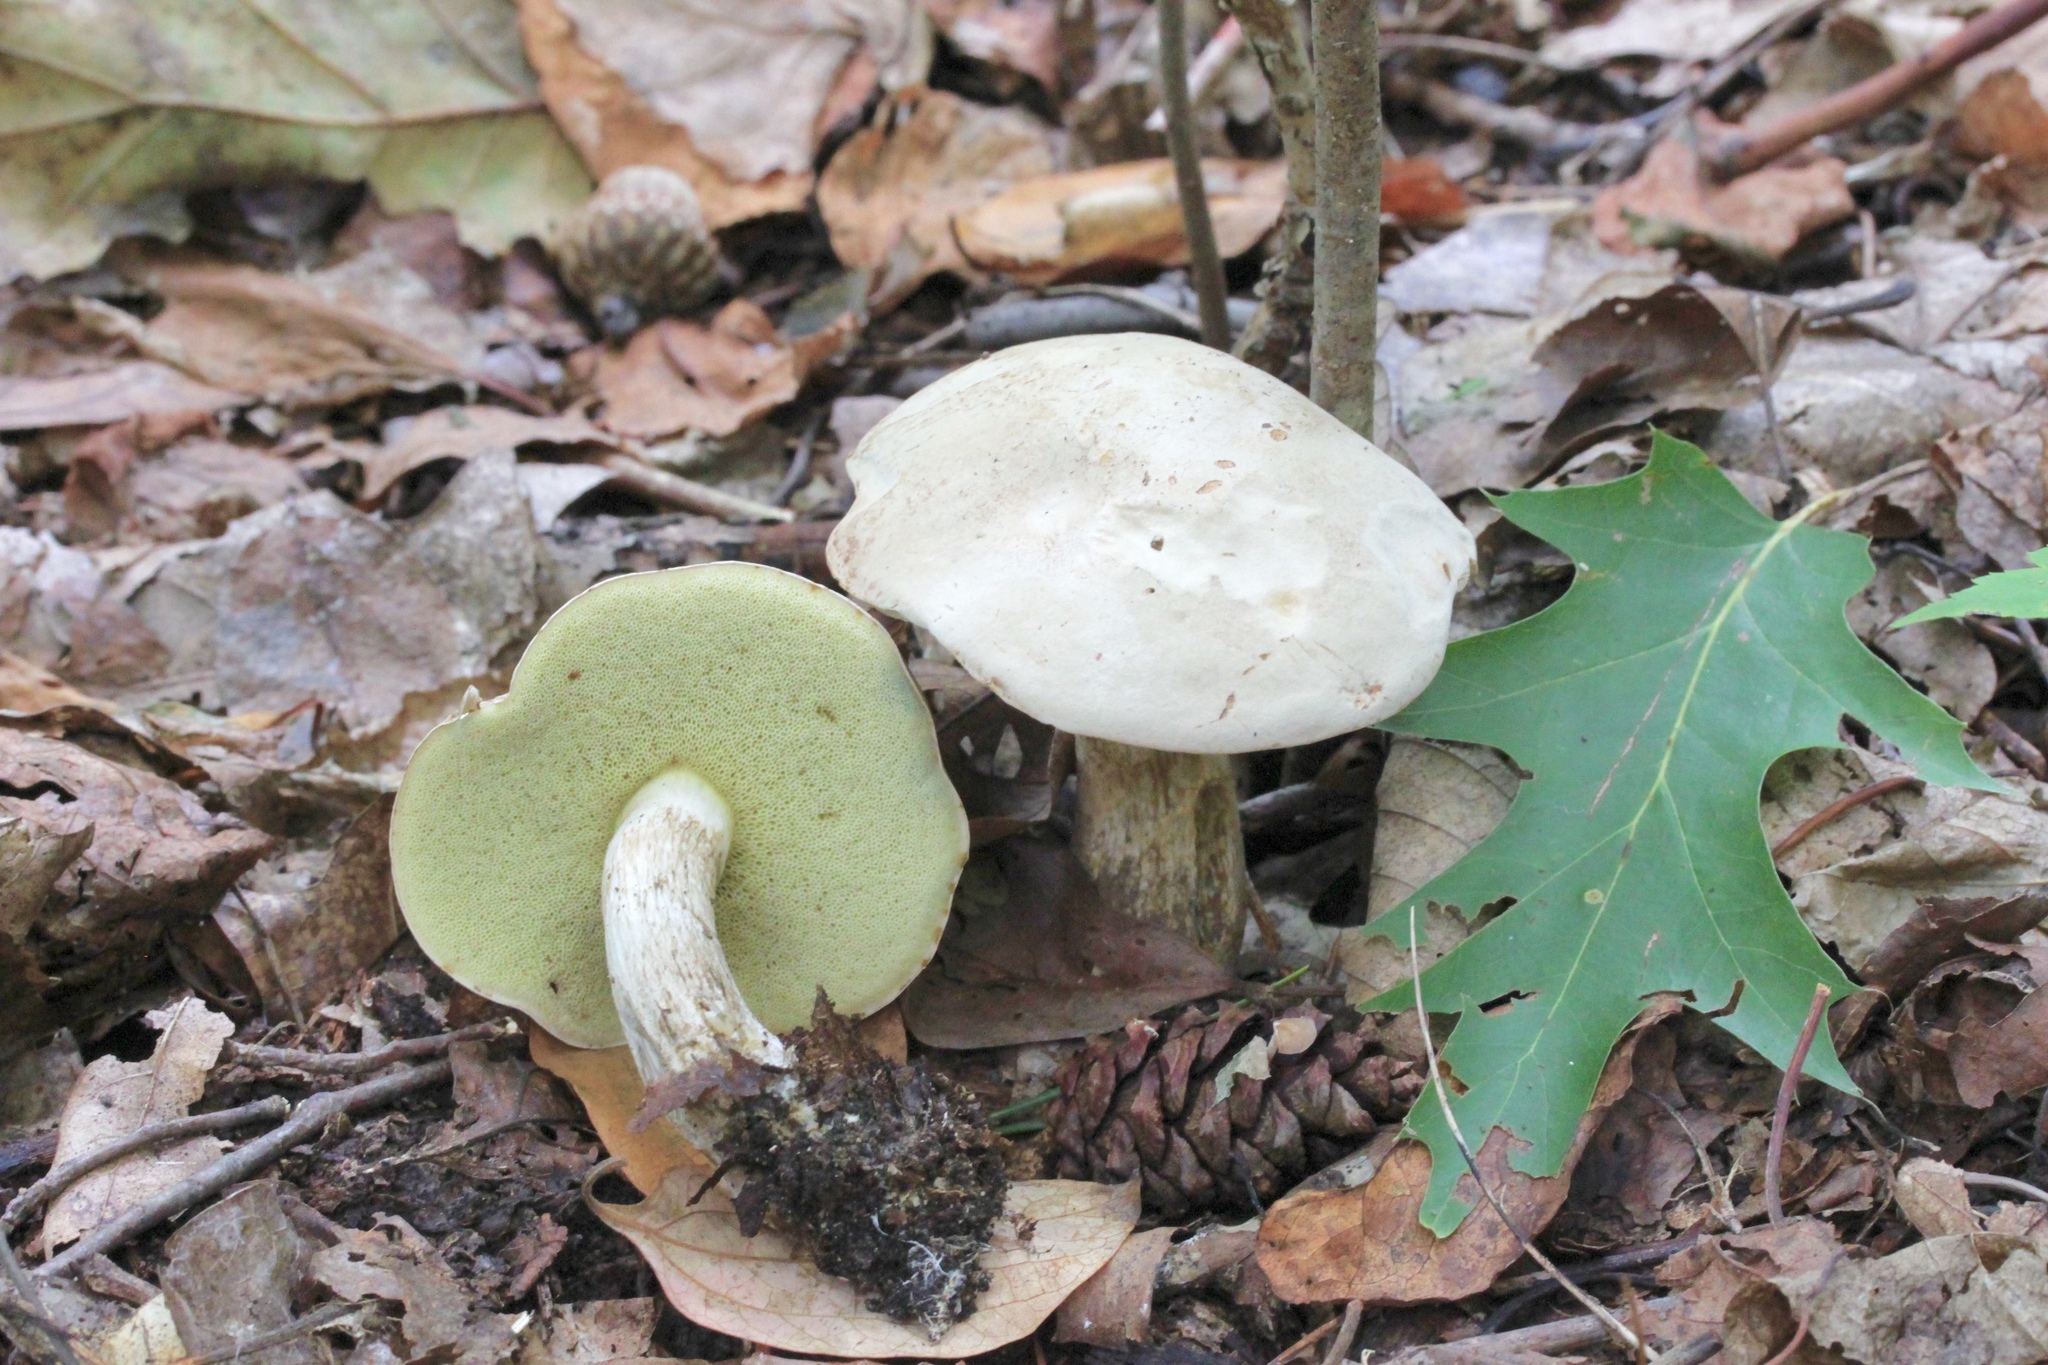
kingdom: Fungi
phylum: Basidiomycota
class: Agaricomycetes
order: Boletales
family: Boletaceae
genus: Imleria
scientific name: Imleria pallida
